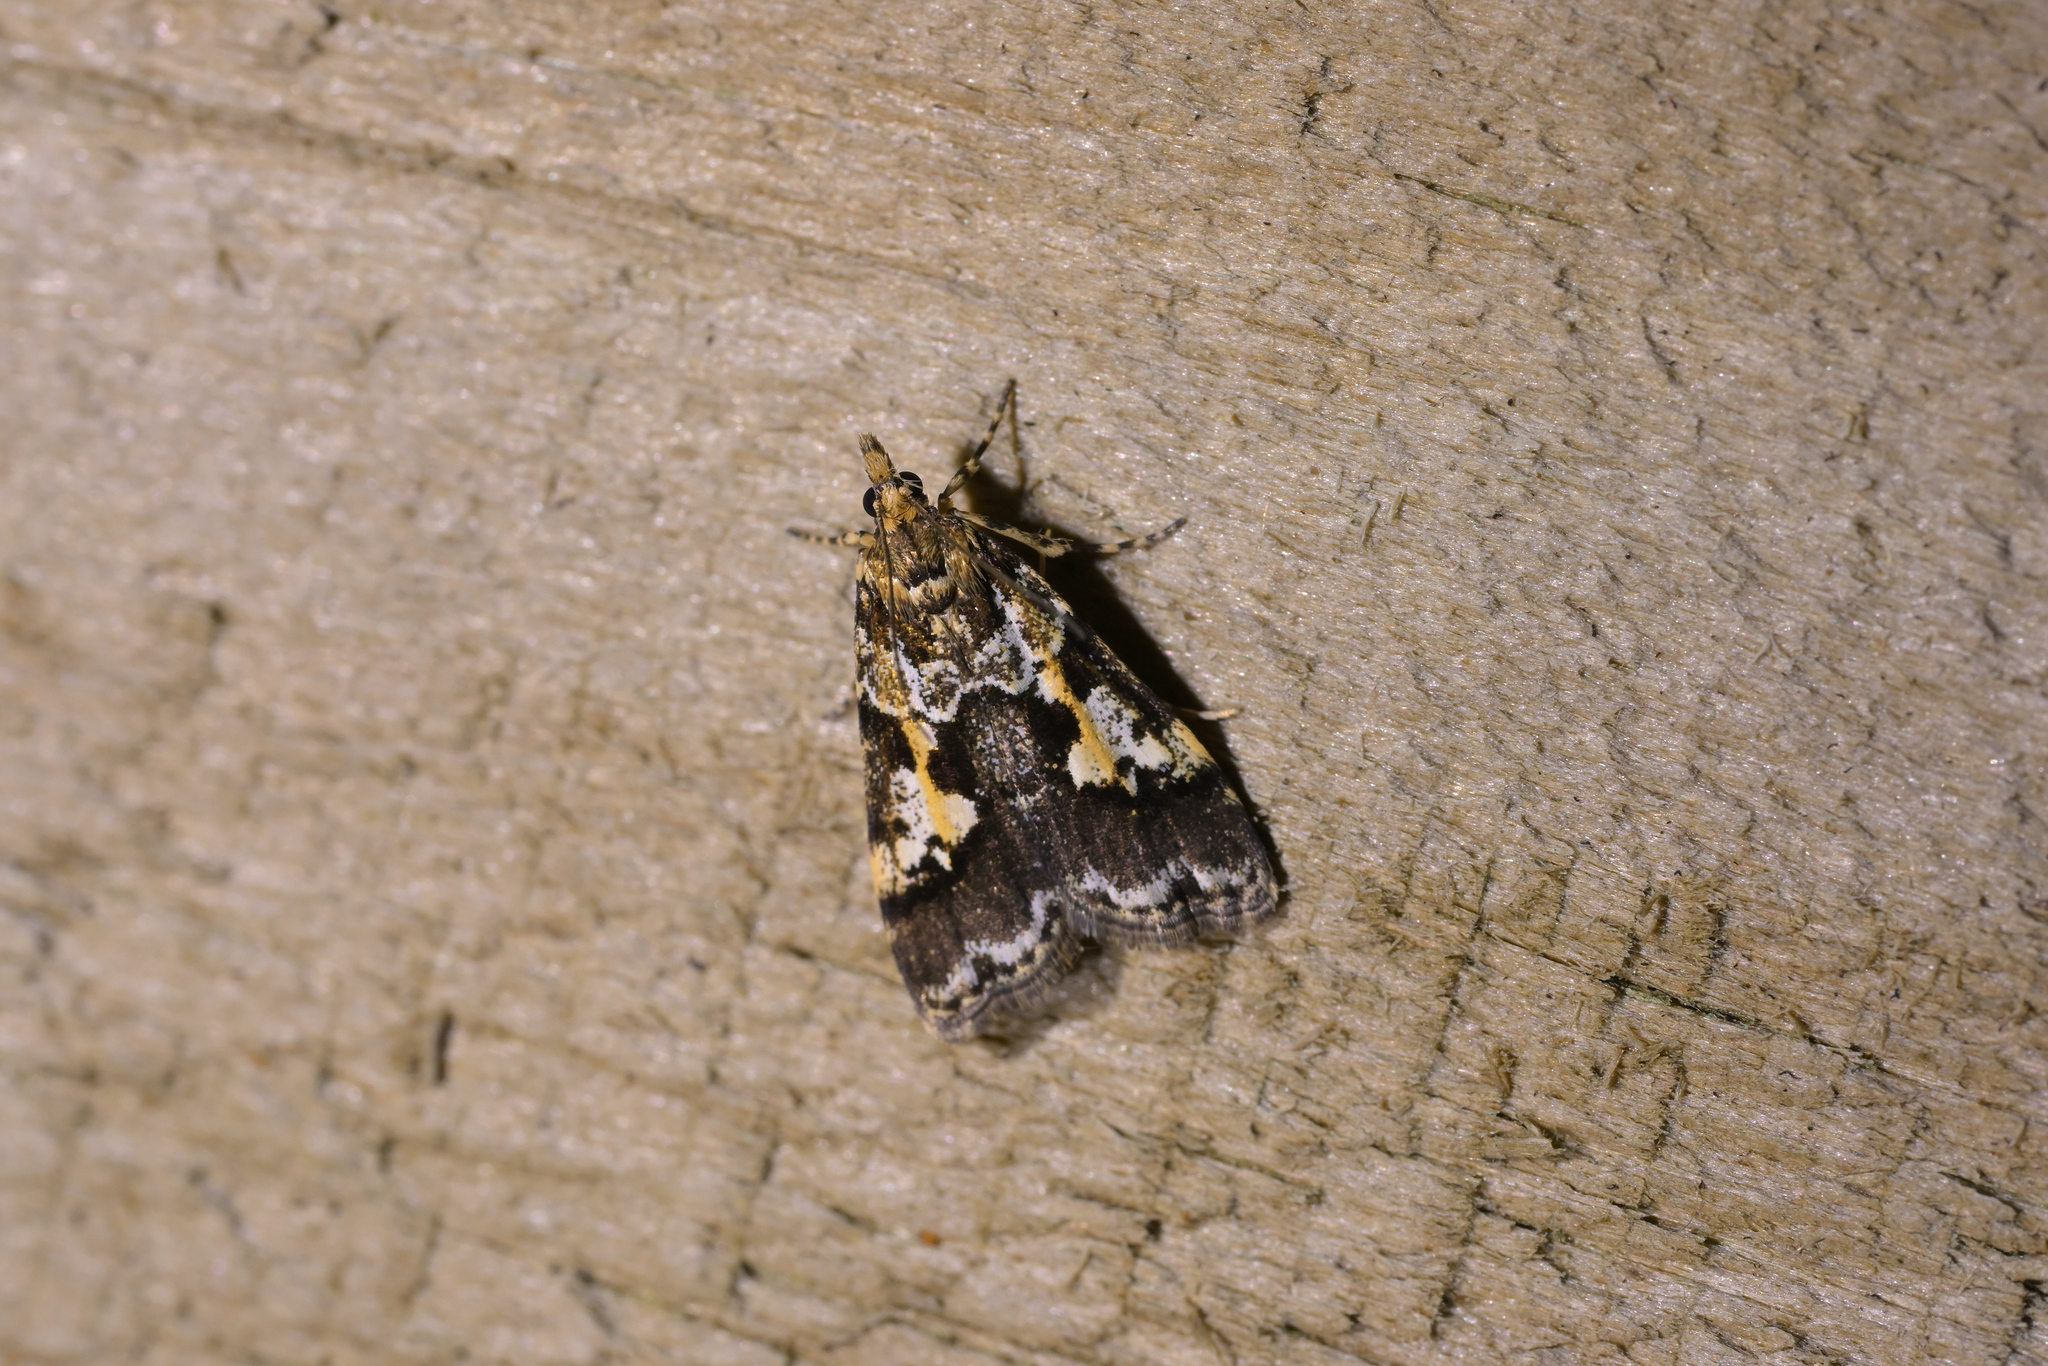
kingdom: Animalia
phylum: Arthropoda
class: Insecta
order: Lepidoptera
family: Crambidae
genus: Eudonia
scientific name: Eudonia characta
